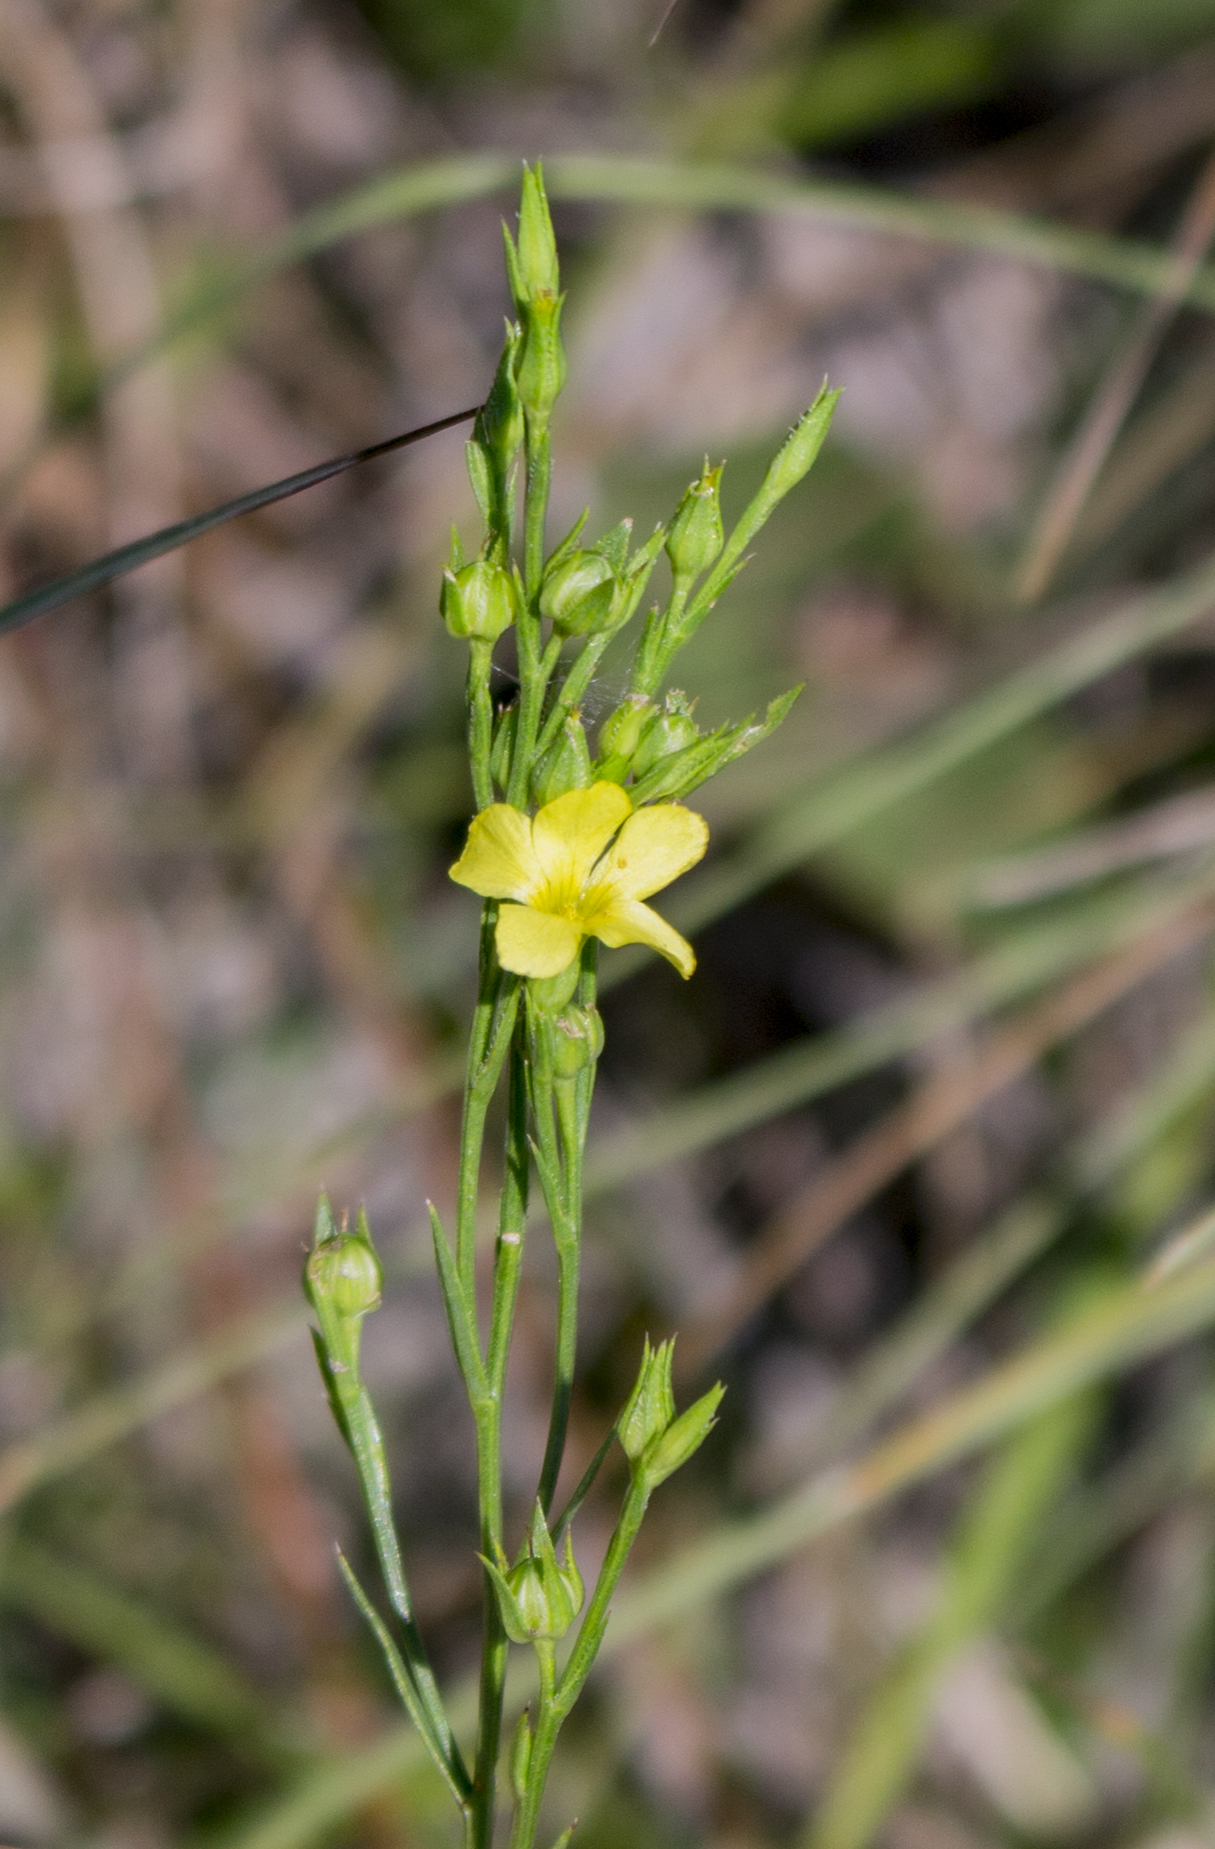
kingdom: Plantae
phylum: Tracheophyta
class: Magnoliopsida
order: Malpighiales
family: Linaceae
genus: Linum
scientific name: Linum sulcatum
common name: Grooved flax
